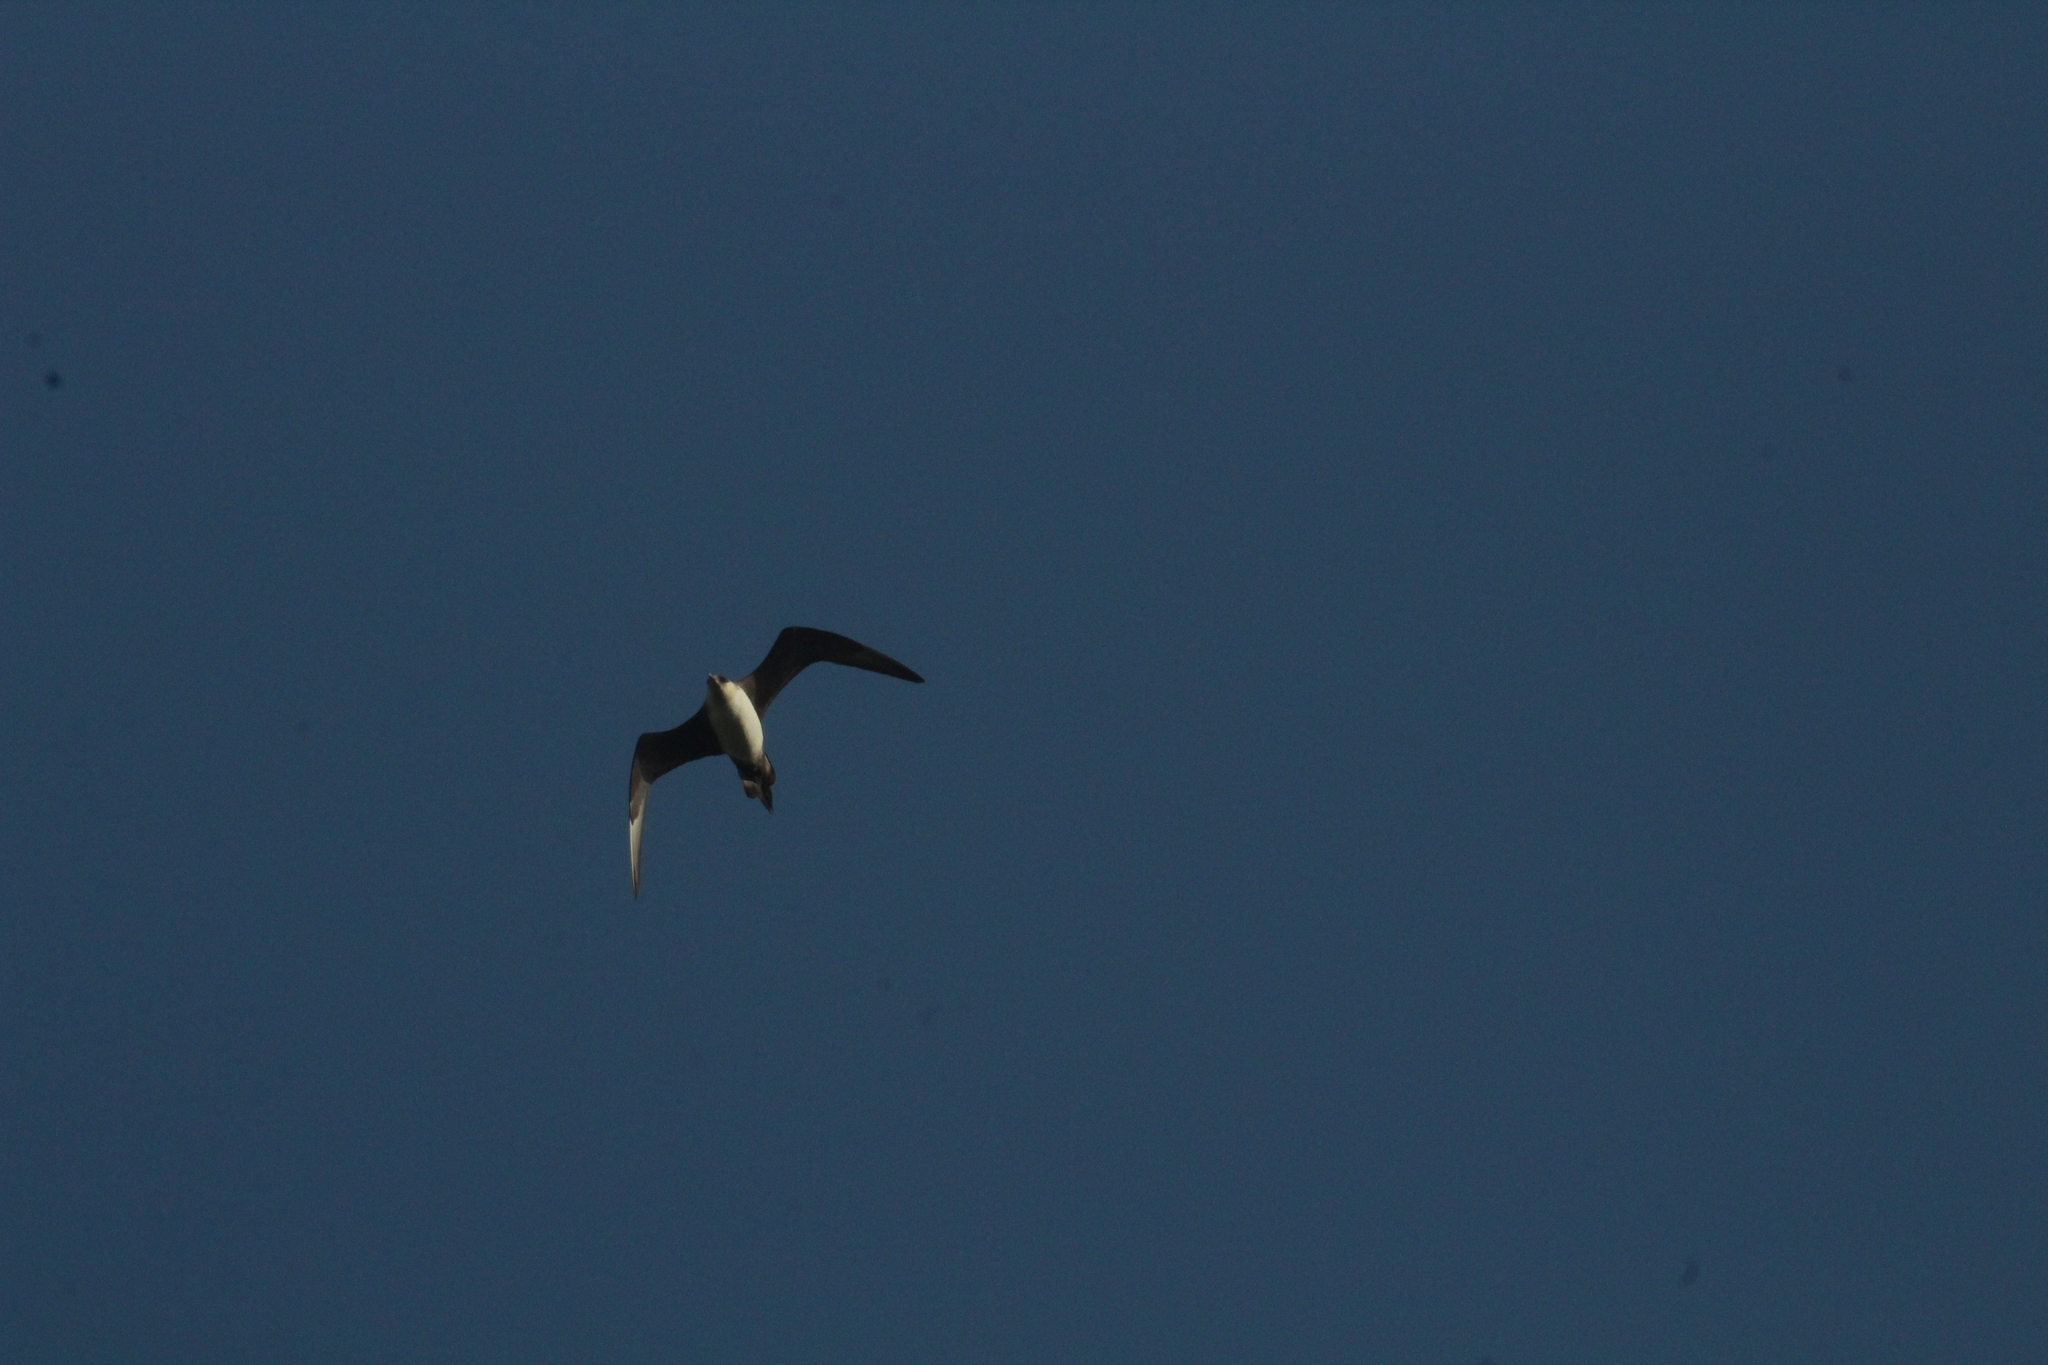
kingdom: Animalia
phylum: Chordata
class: Aves
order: Charadriiformes
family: Stercorariidae
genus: Stercorarius
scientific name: Stercorarius parasiticus
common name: Parasitic jaeger
